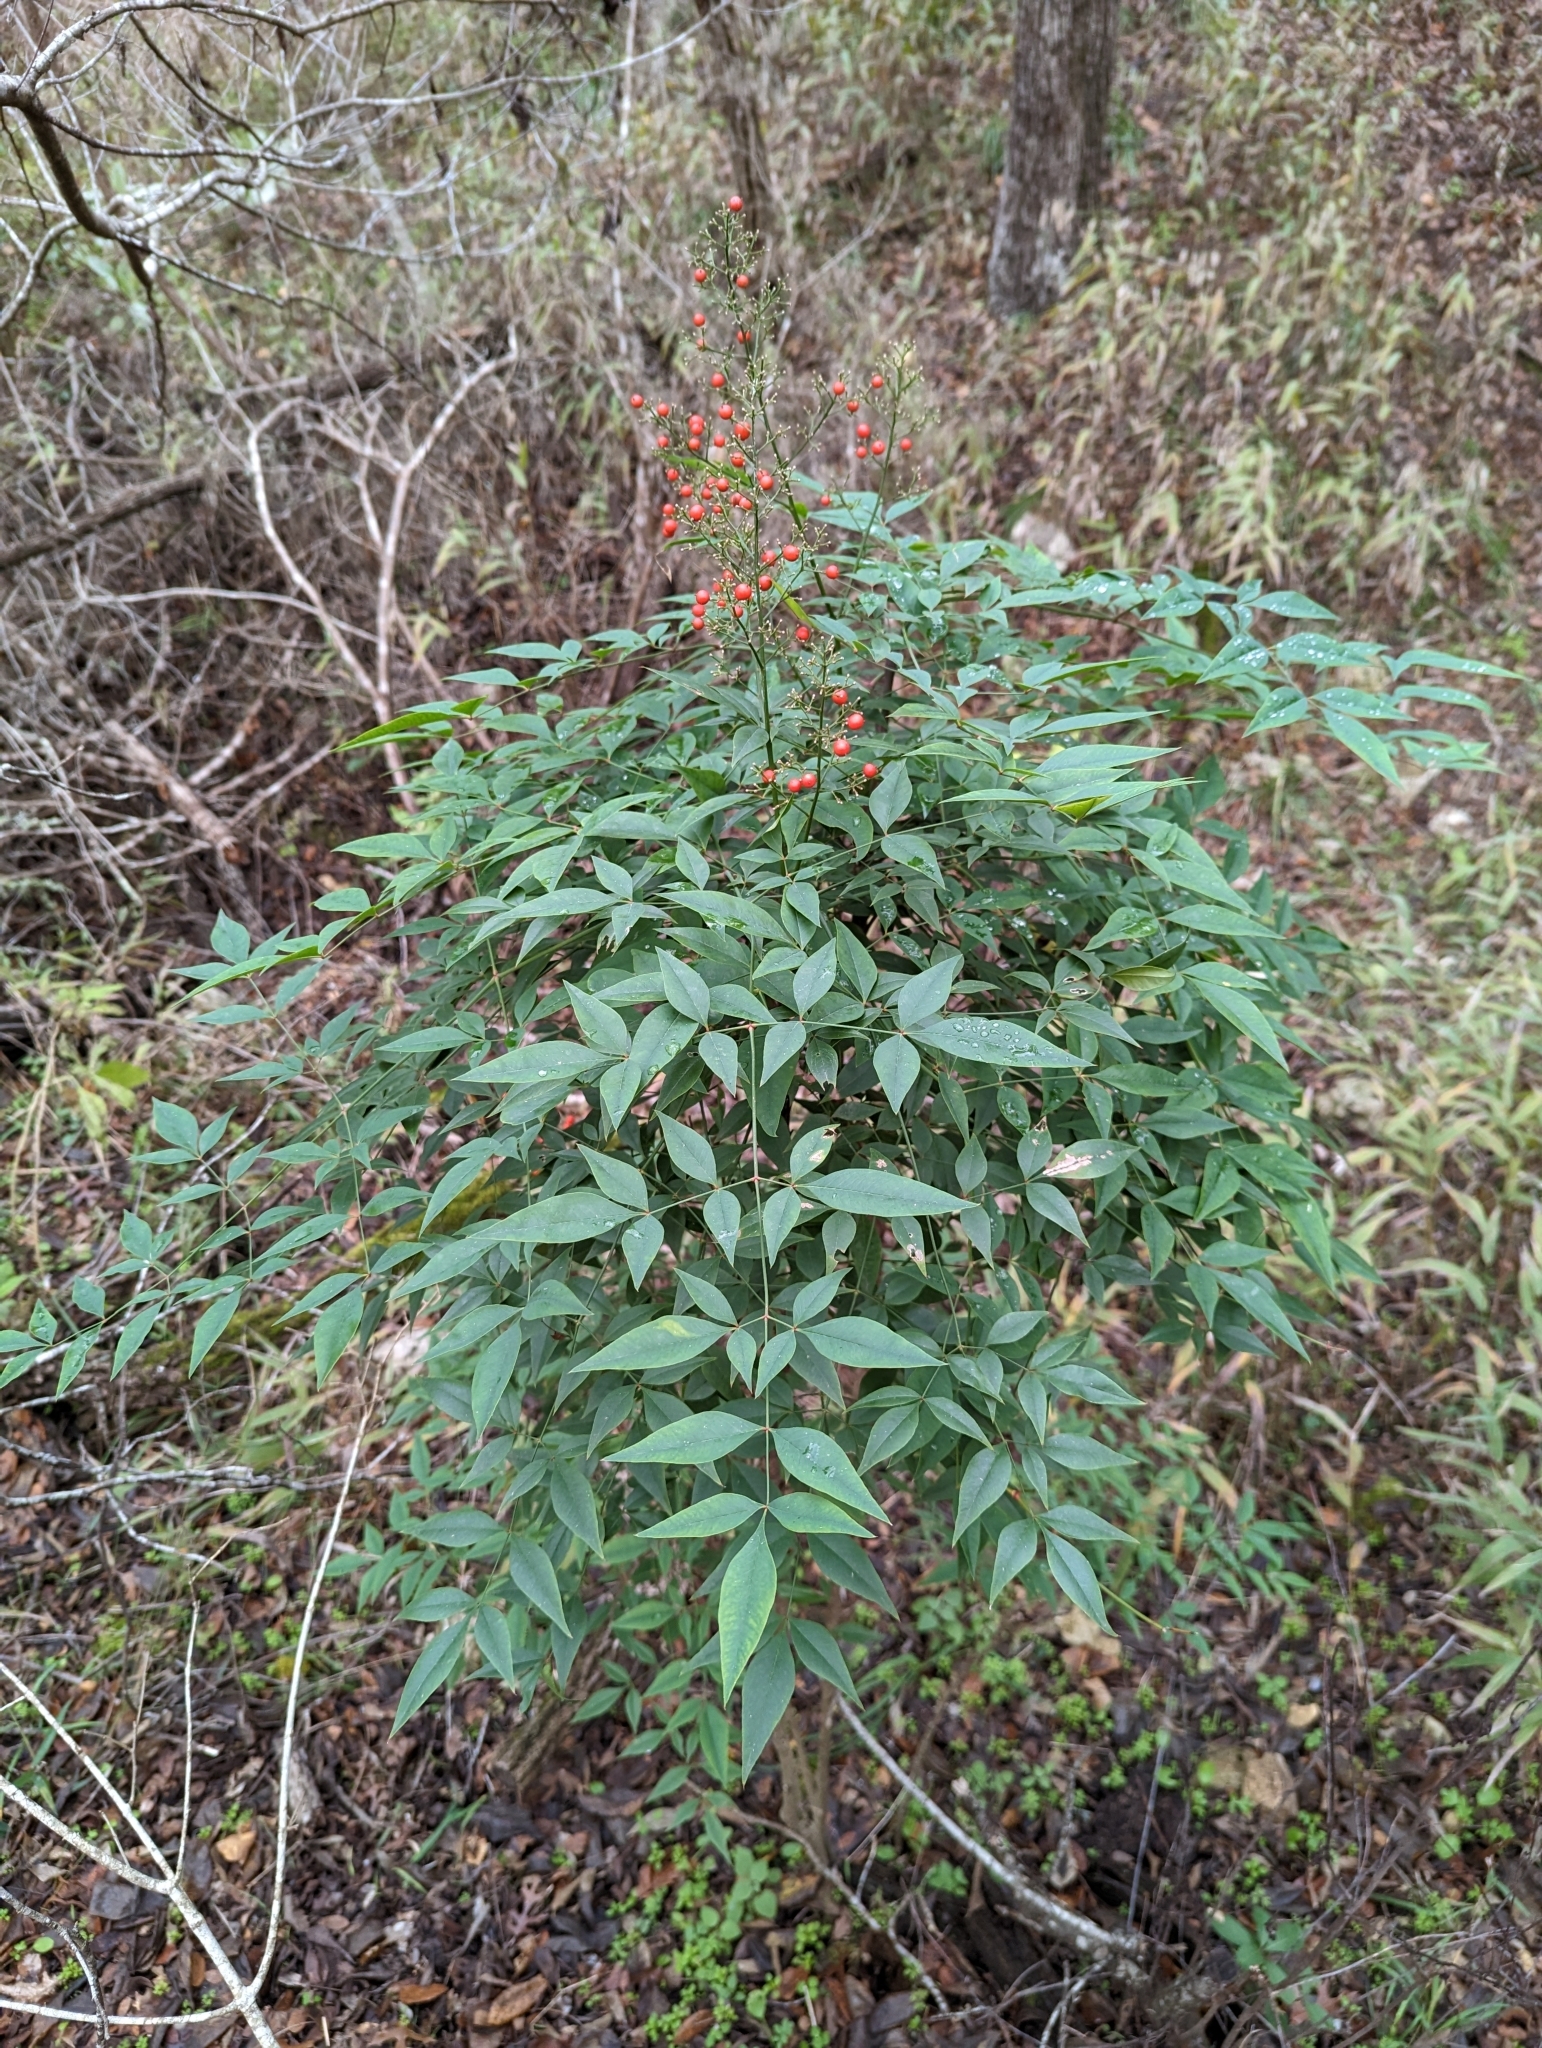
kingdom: Plantae
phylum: Tracheophyta
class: Magnoliopsida
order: Ranunculales
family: Berberidaceae
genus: Nandina
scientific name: Nandina domestica
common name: Sacred bamboo
